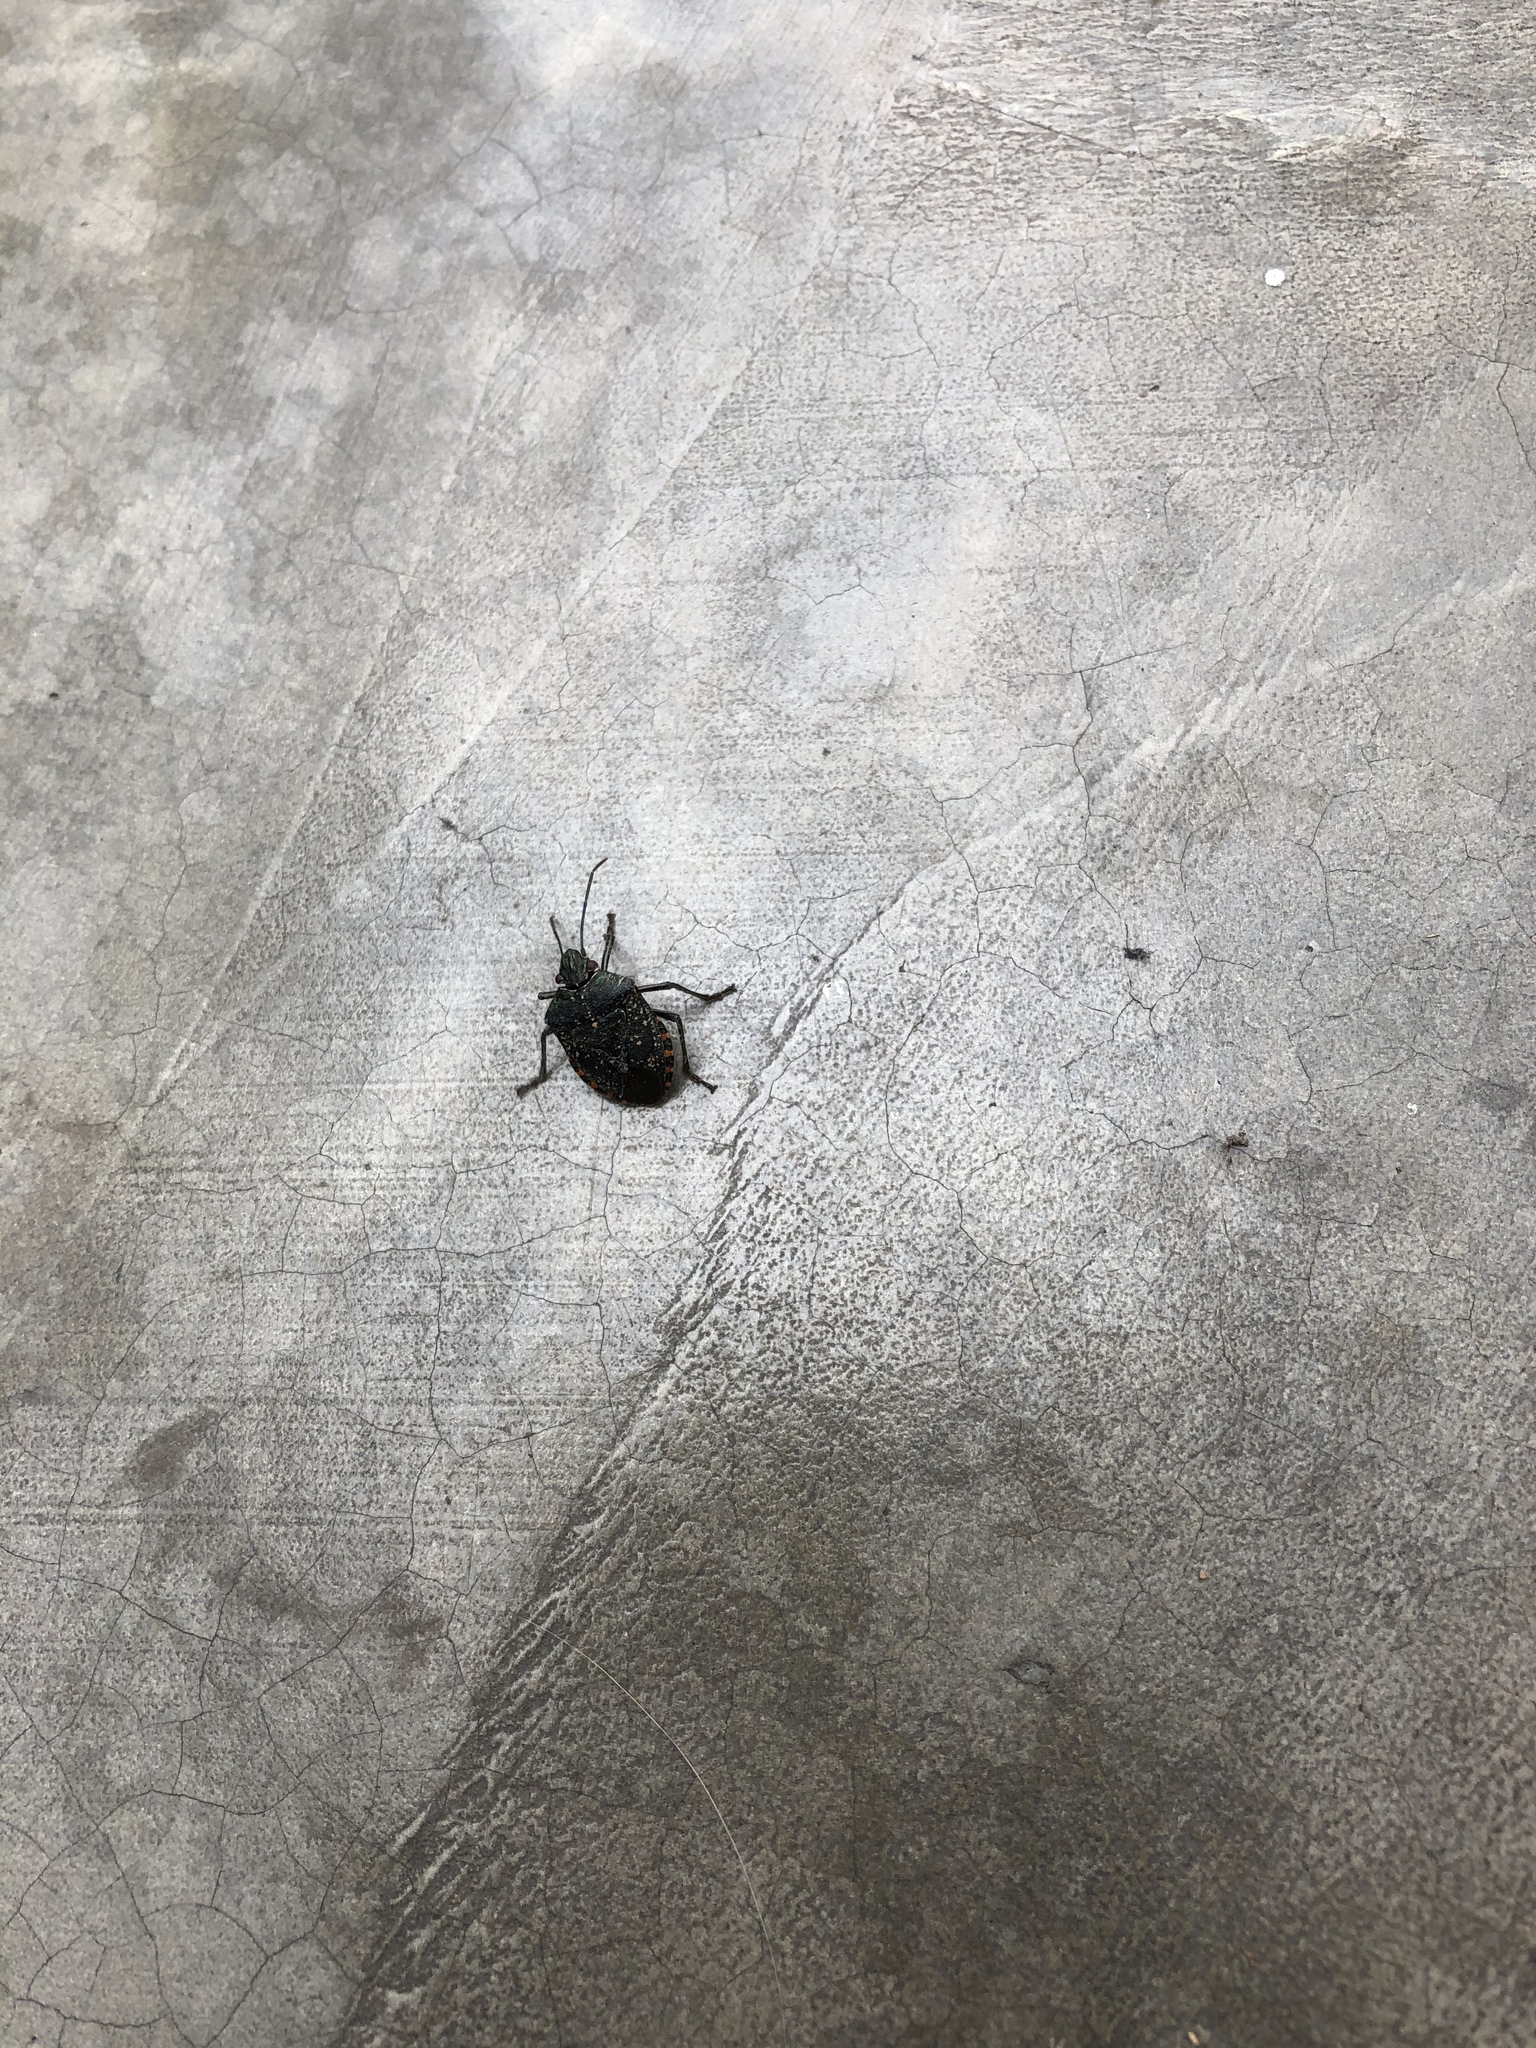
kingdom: Animalia
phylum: Arthropoda
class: Insecta
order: Hemiptera
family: Pentatomidae
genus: Pellaea
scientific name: Pellaea stictica
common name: Stink bug
